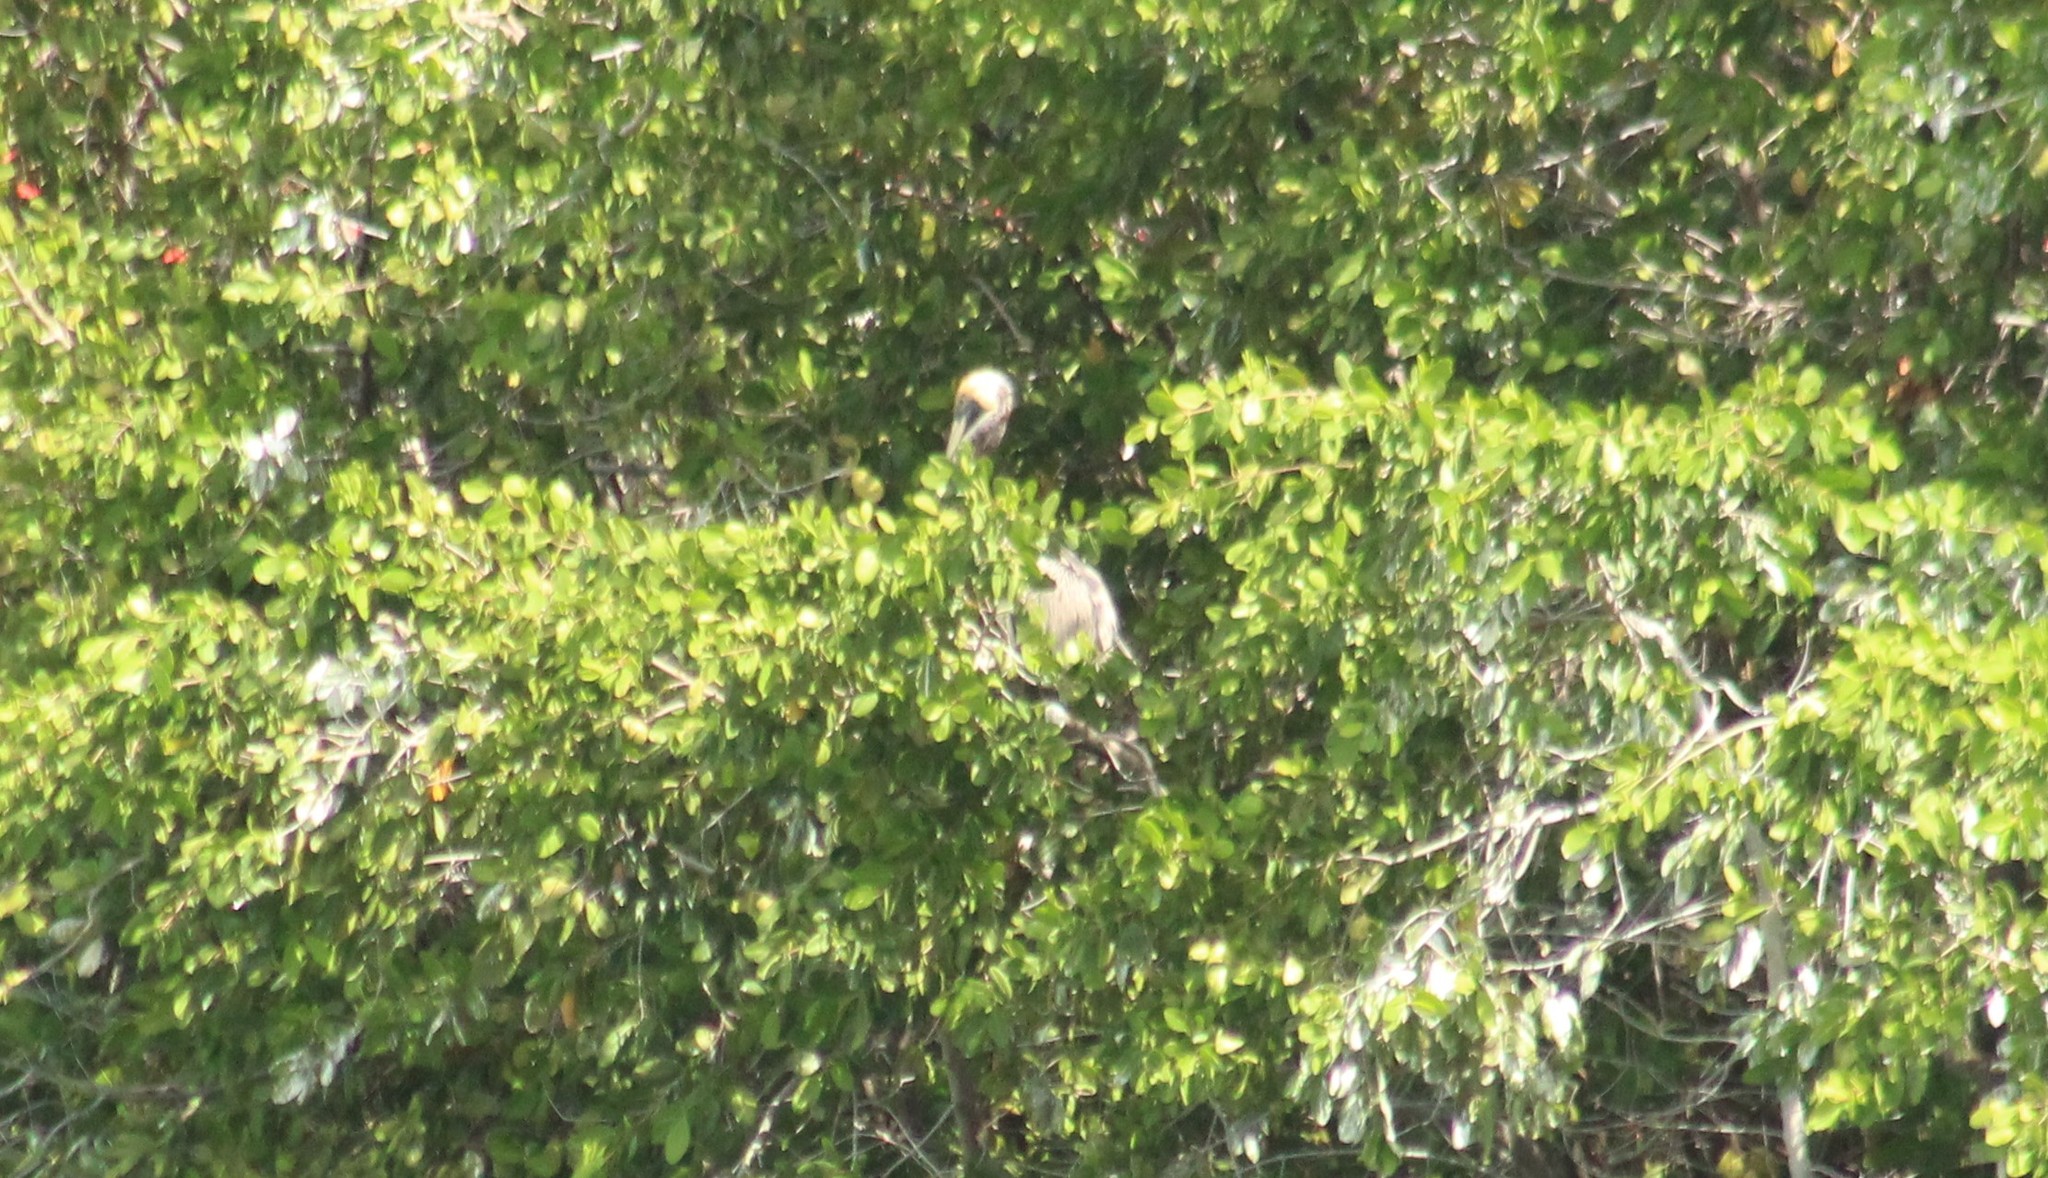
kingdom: Animalia
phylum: Chordata
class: Aves
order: Pelecaniformes
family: Pelecanidae
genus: Pelecanus
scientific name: Pelecanus occidentalis
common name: Brown pelican
